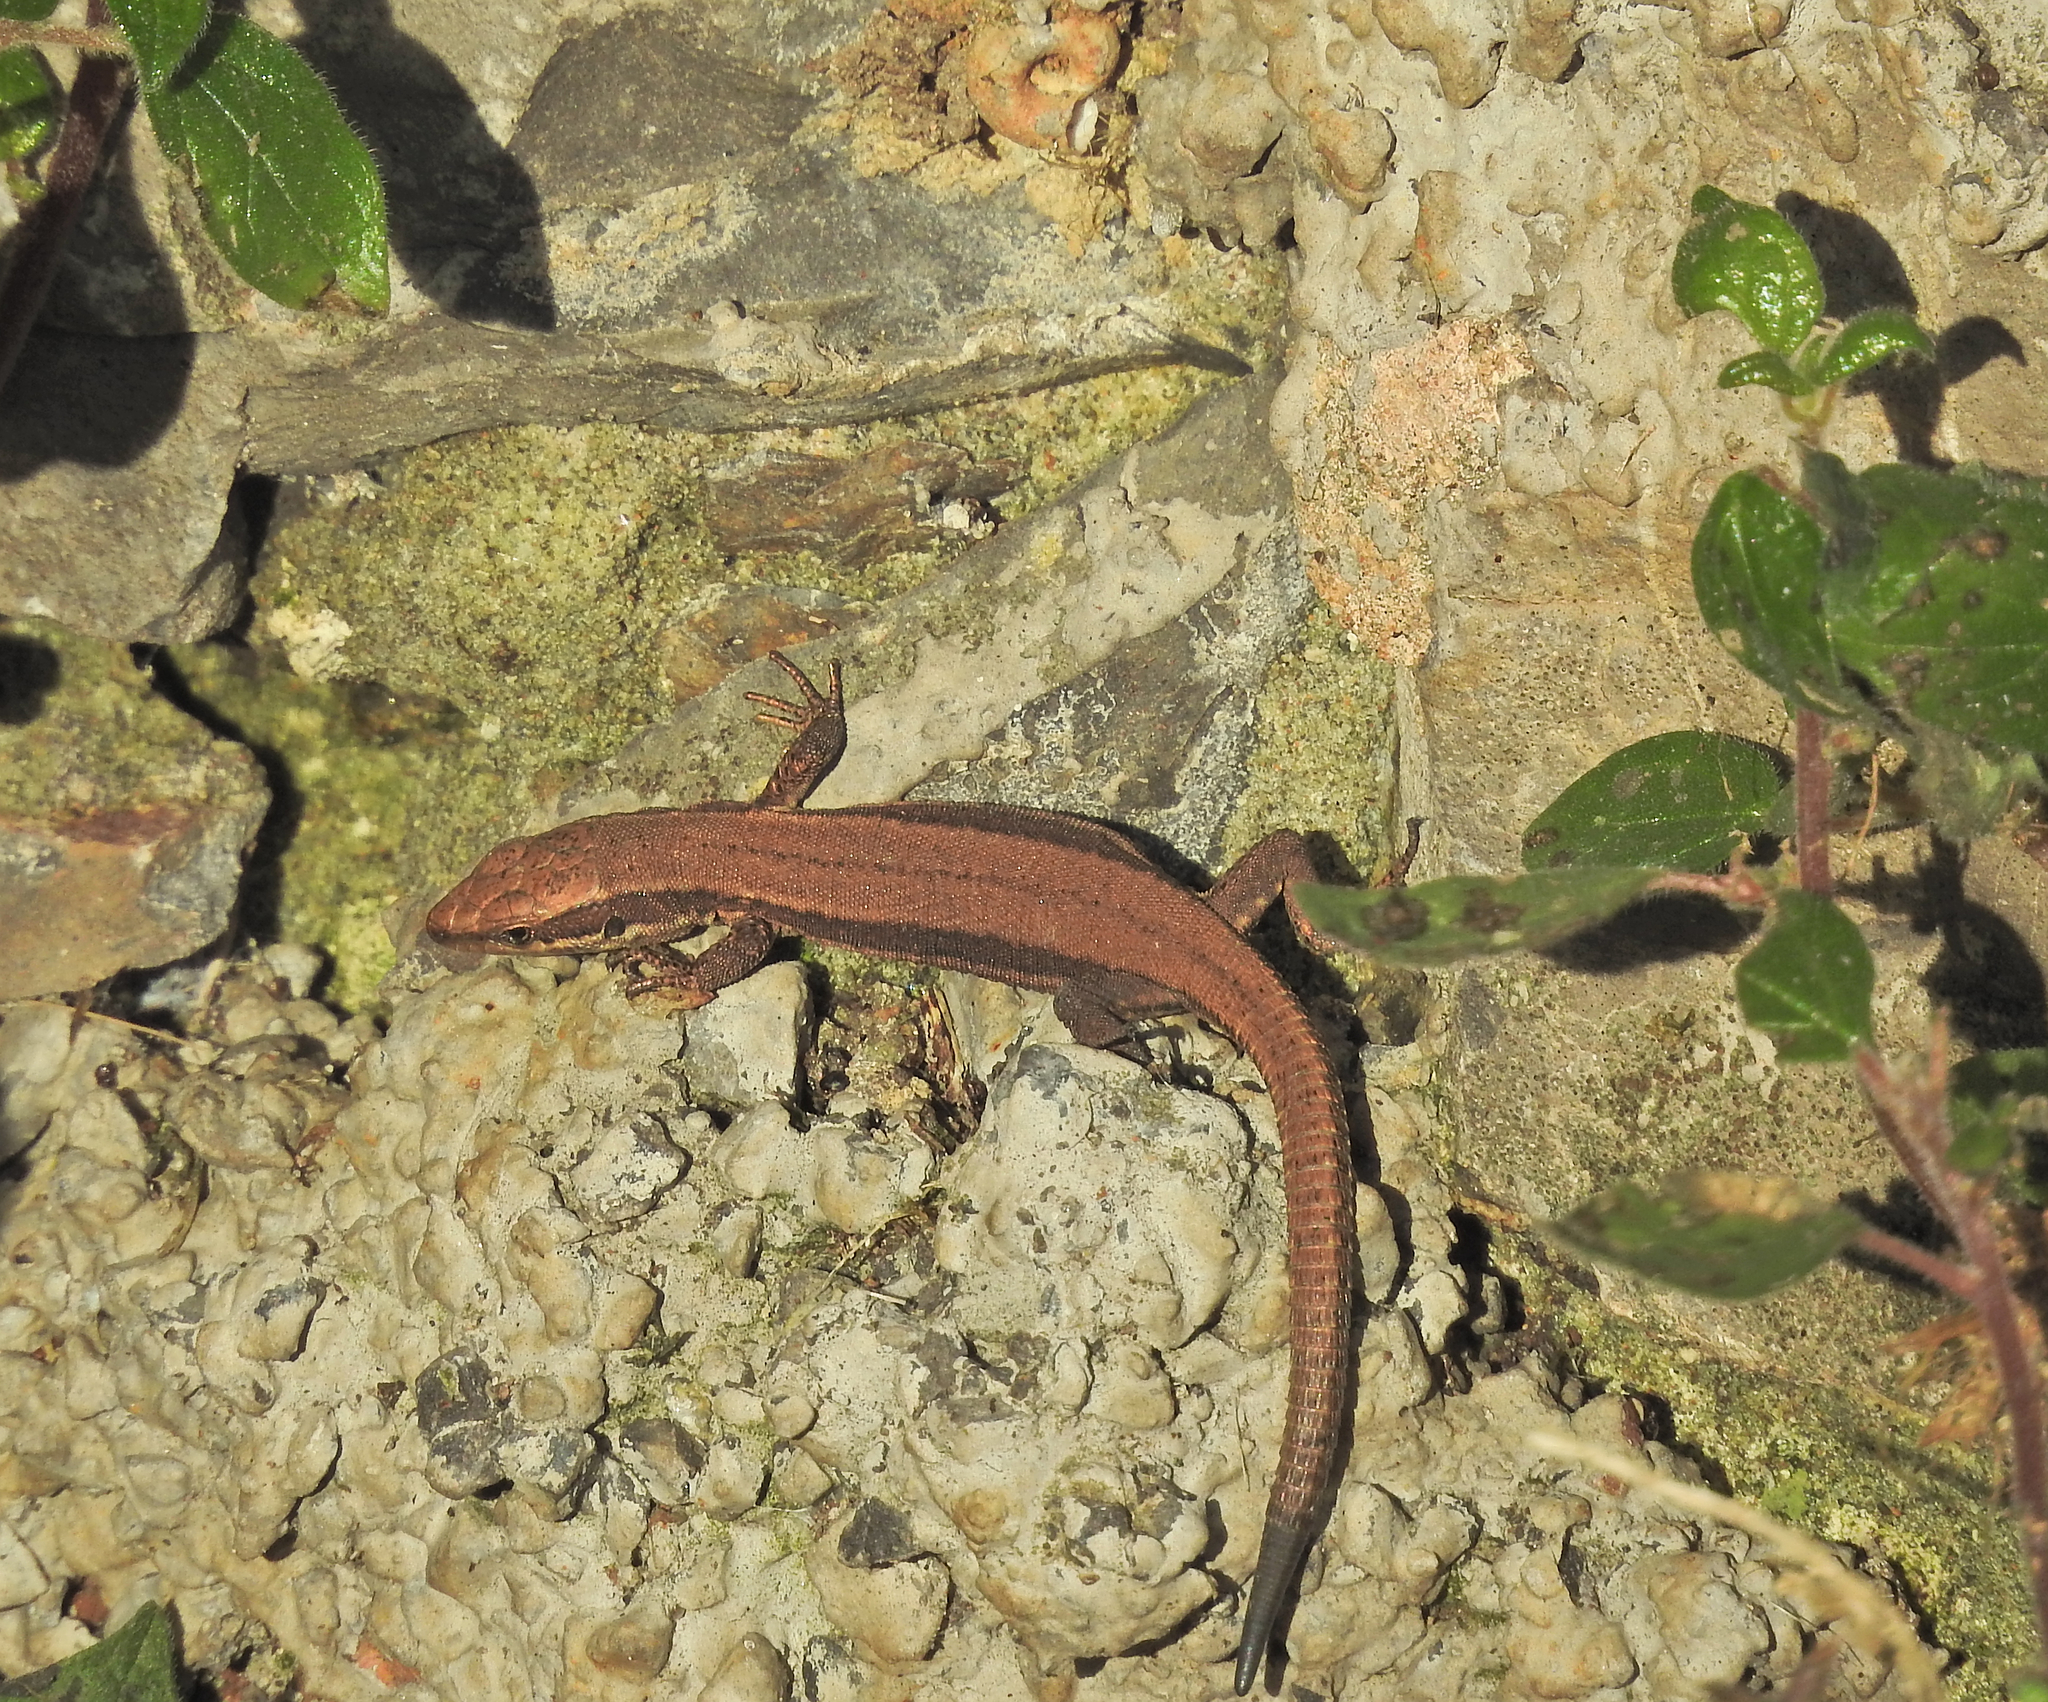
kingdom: Animalia
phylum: Chordata
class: Squamata
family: Lacertidae
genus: Podarcis
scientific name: Podarcis muralis
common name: Common wall lizard
